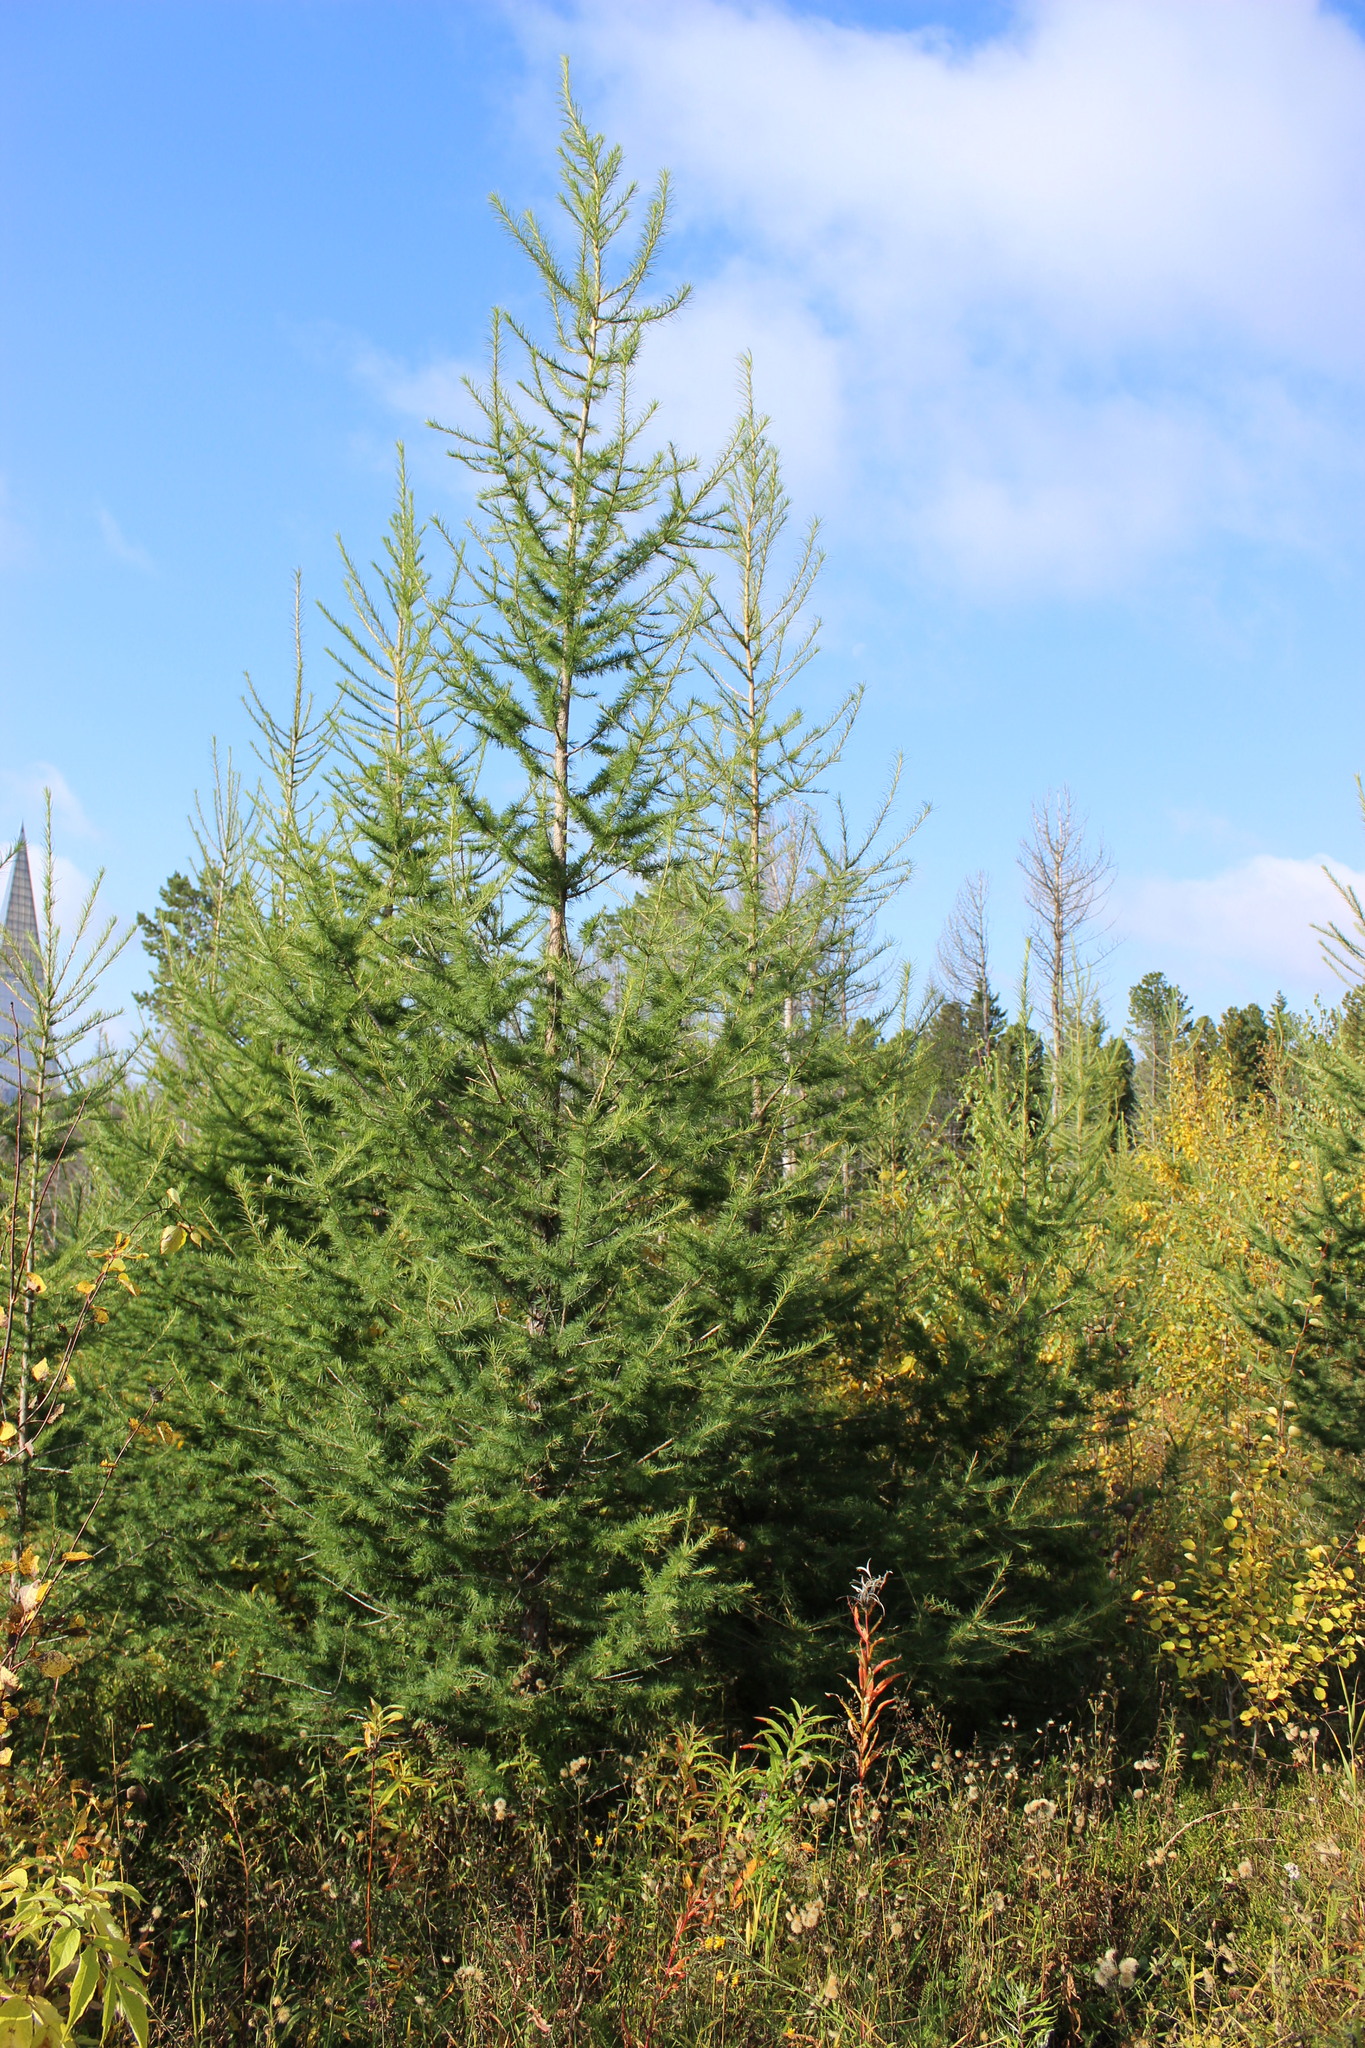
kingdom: Plantae
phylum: Tracheophyta
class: Pinopsida
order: Pinales
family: Pinaceae
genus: Larix
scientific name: Larix sibirica
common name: Siberian larch
